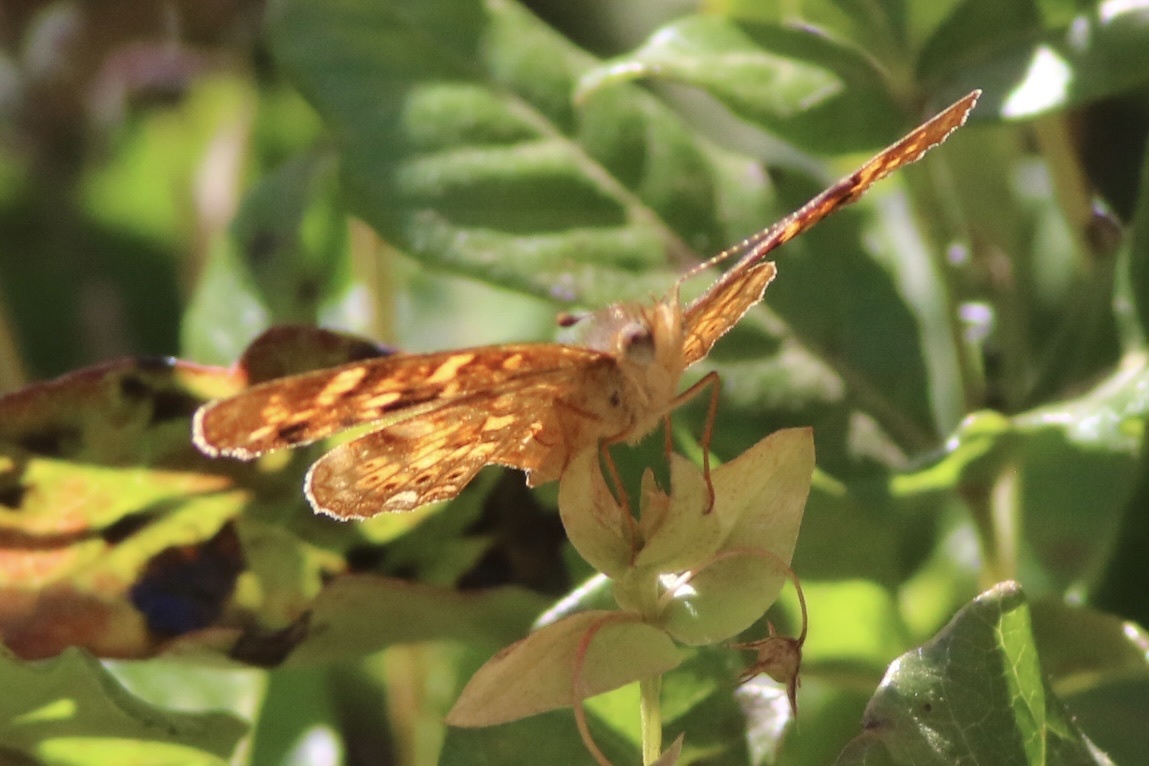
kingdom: Animalia
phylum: Arthropoda
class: Insecta
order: Lepidoptera
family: Nymphalidae
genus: Phyciodes
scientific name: Phyciodes tharos
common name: Pearl crescent
